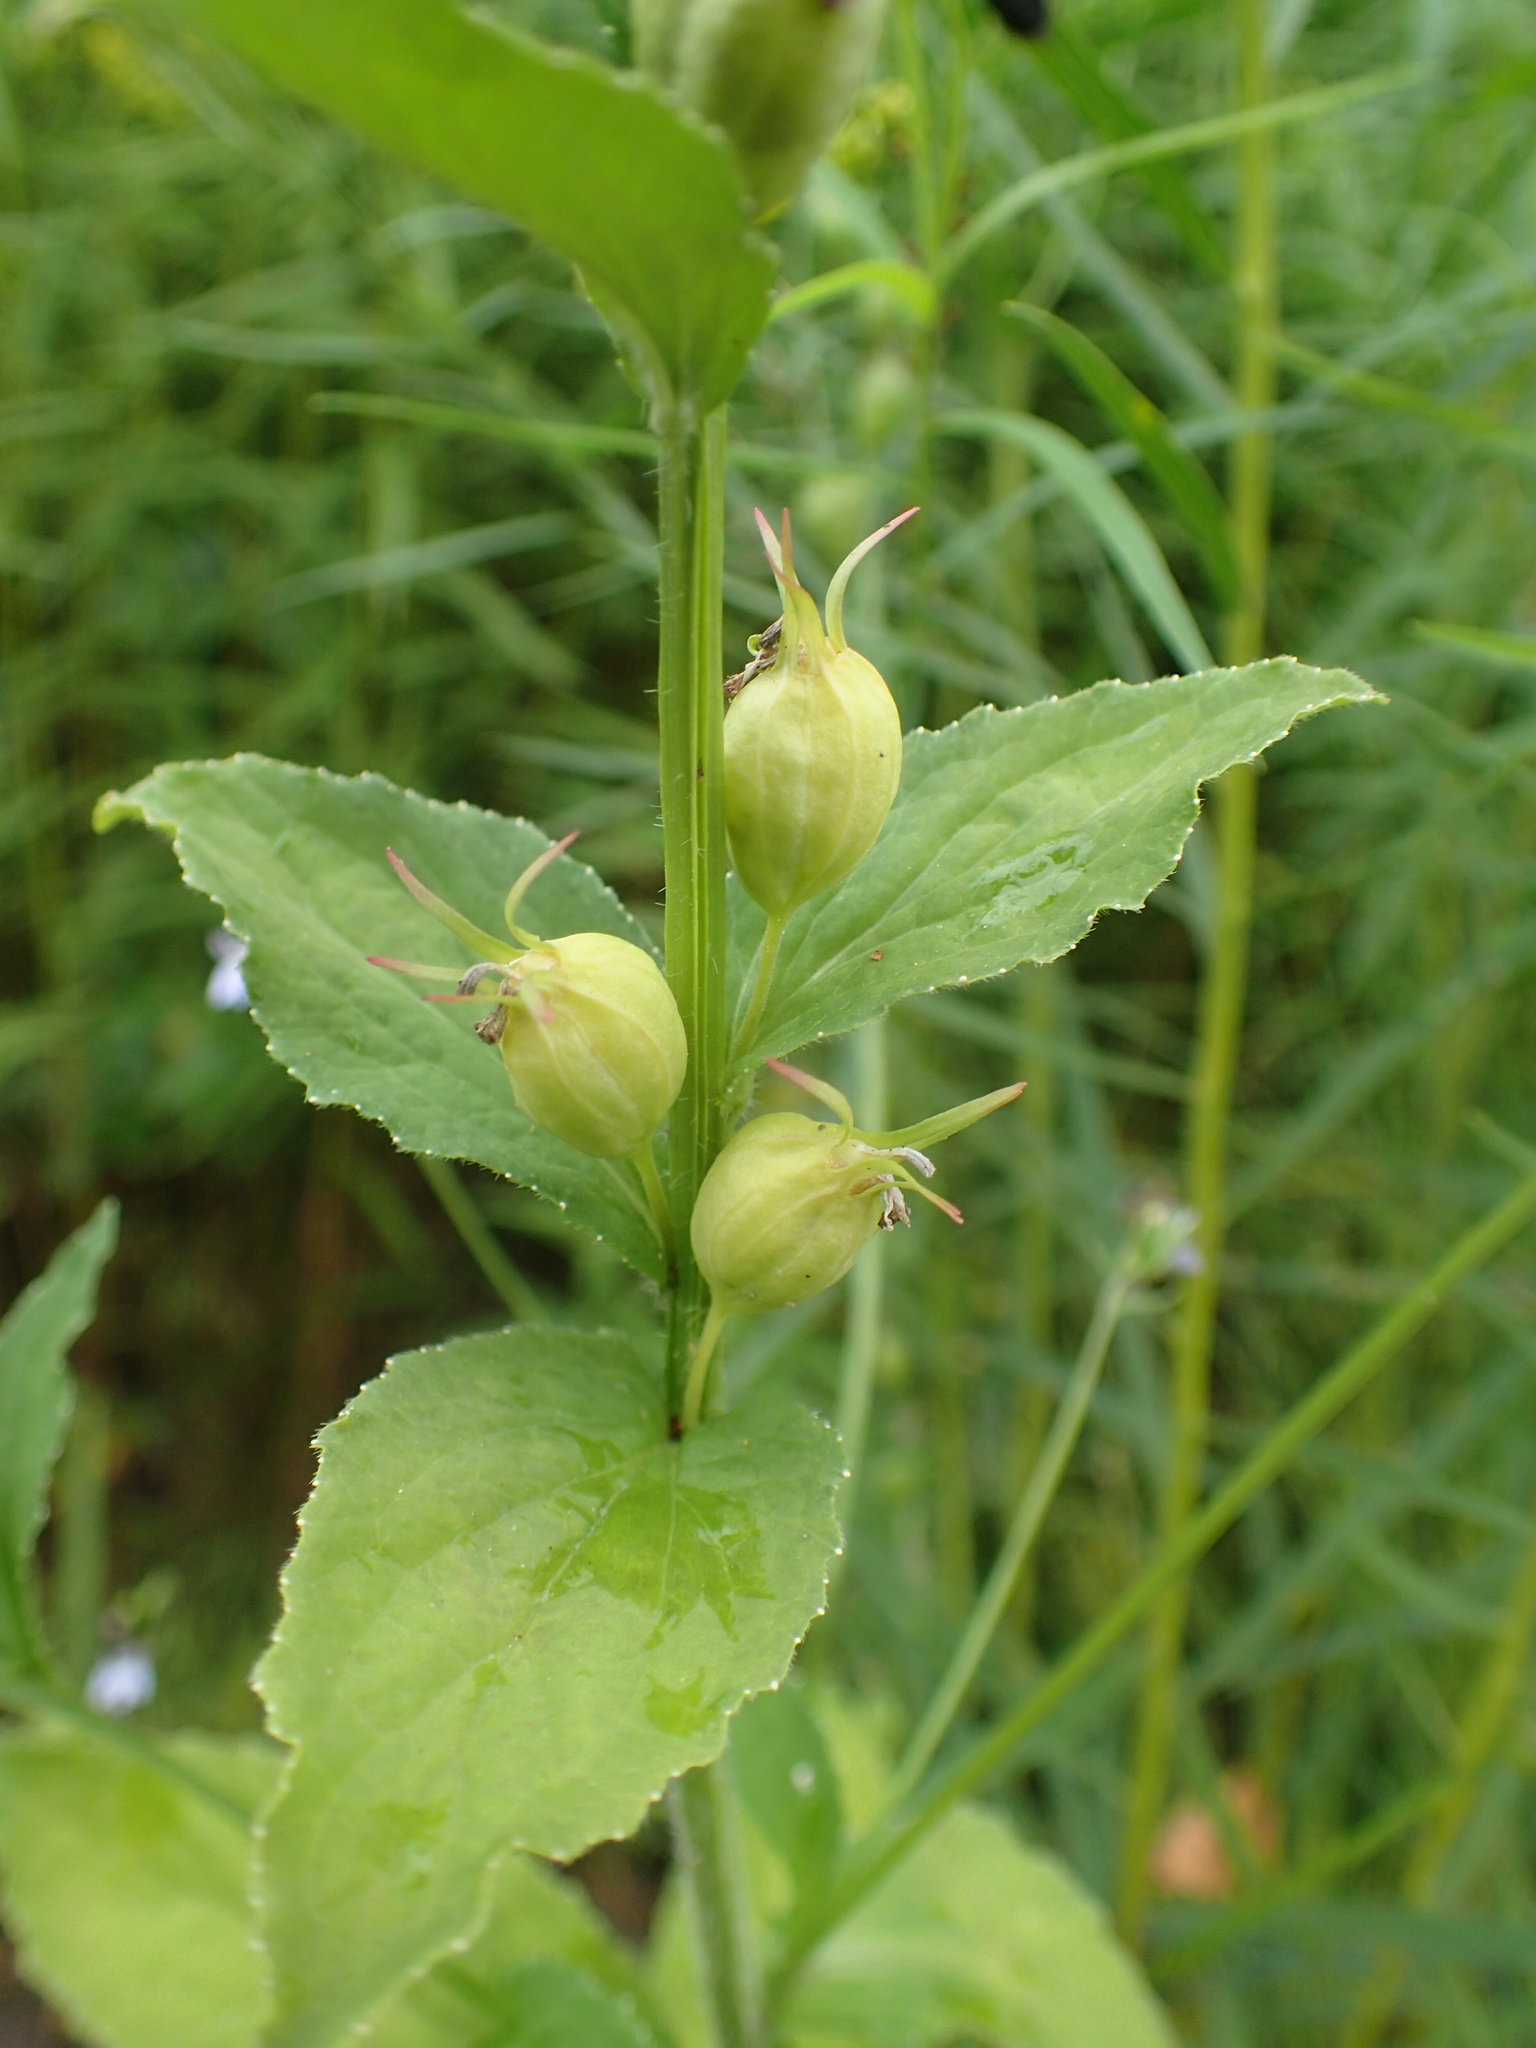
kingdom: Plantae
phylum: Tracheophyta
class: Magnoliopsida
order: Asterales
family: Campanulaceae
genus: Lobelia
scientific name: Lobelia inflata
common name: Indian tobacco
